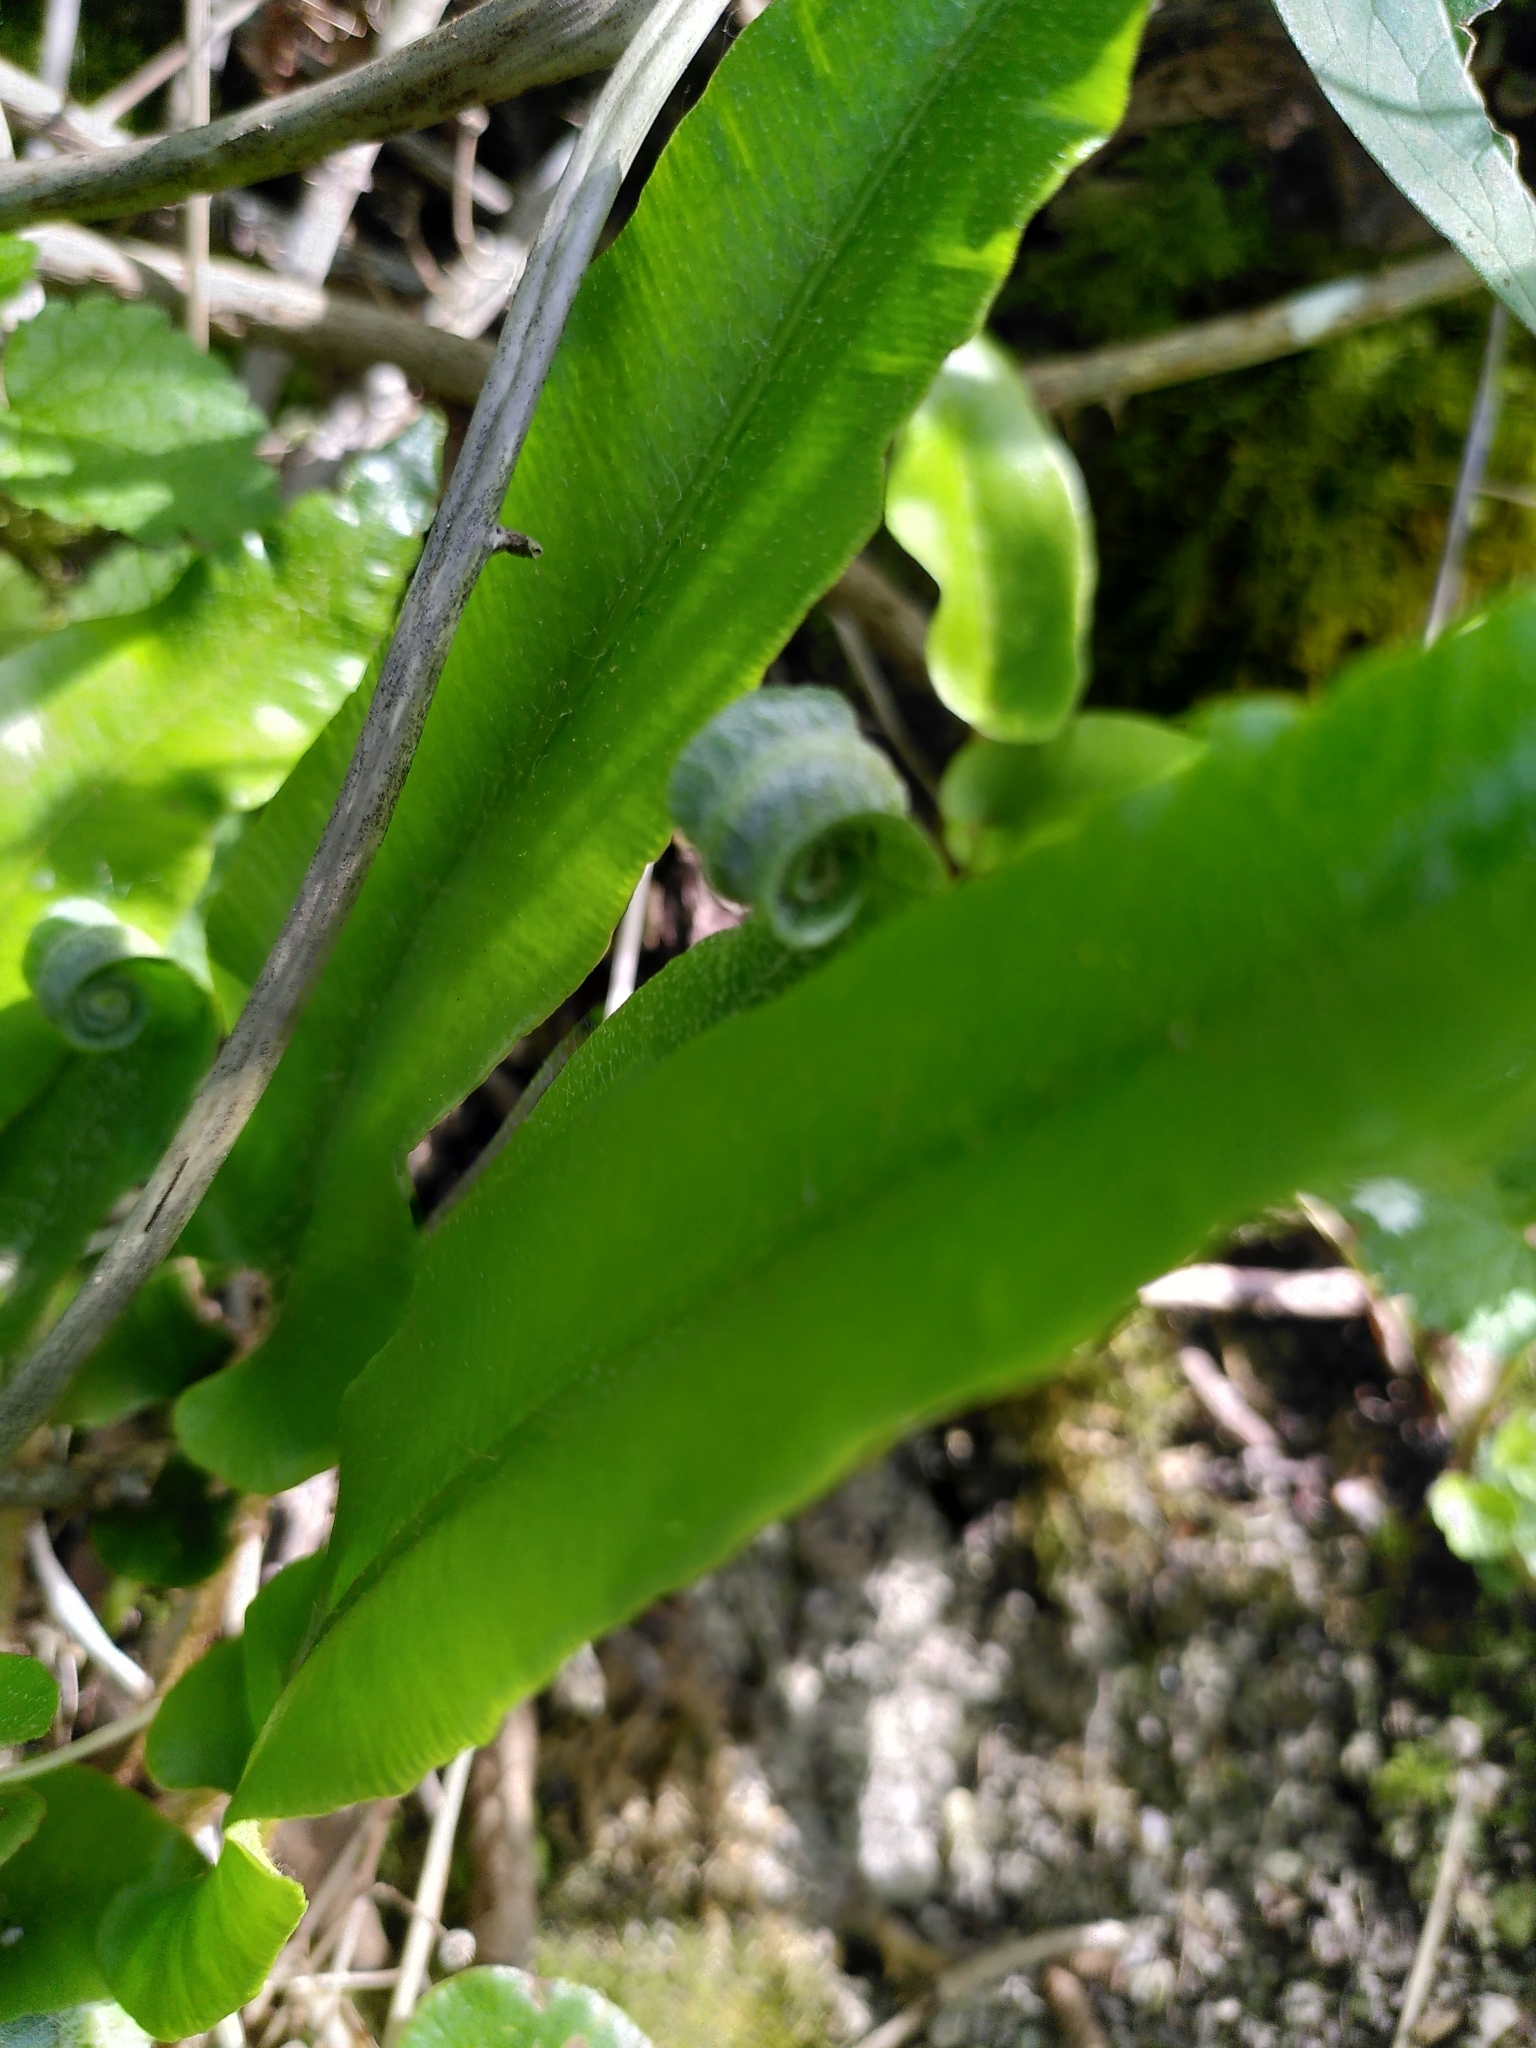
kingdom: Plantae
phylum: Tracheophyta
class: Polypodiopsida
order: Polypodiales
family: Aspleniaceae
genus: Asplenium
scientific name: Asplenium scolopendrium
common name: Hart's-tongue fern
